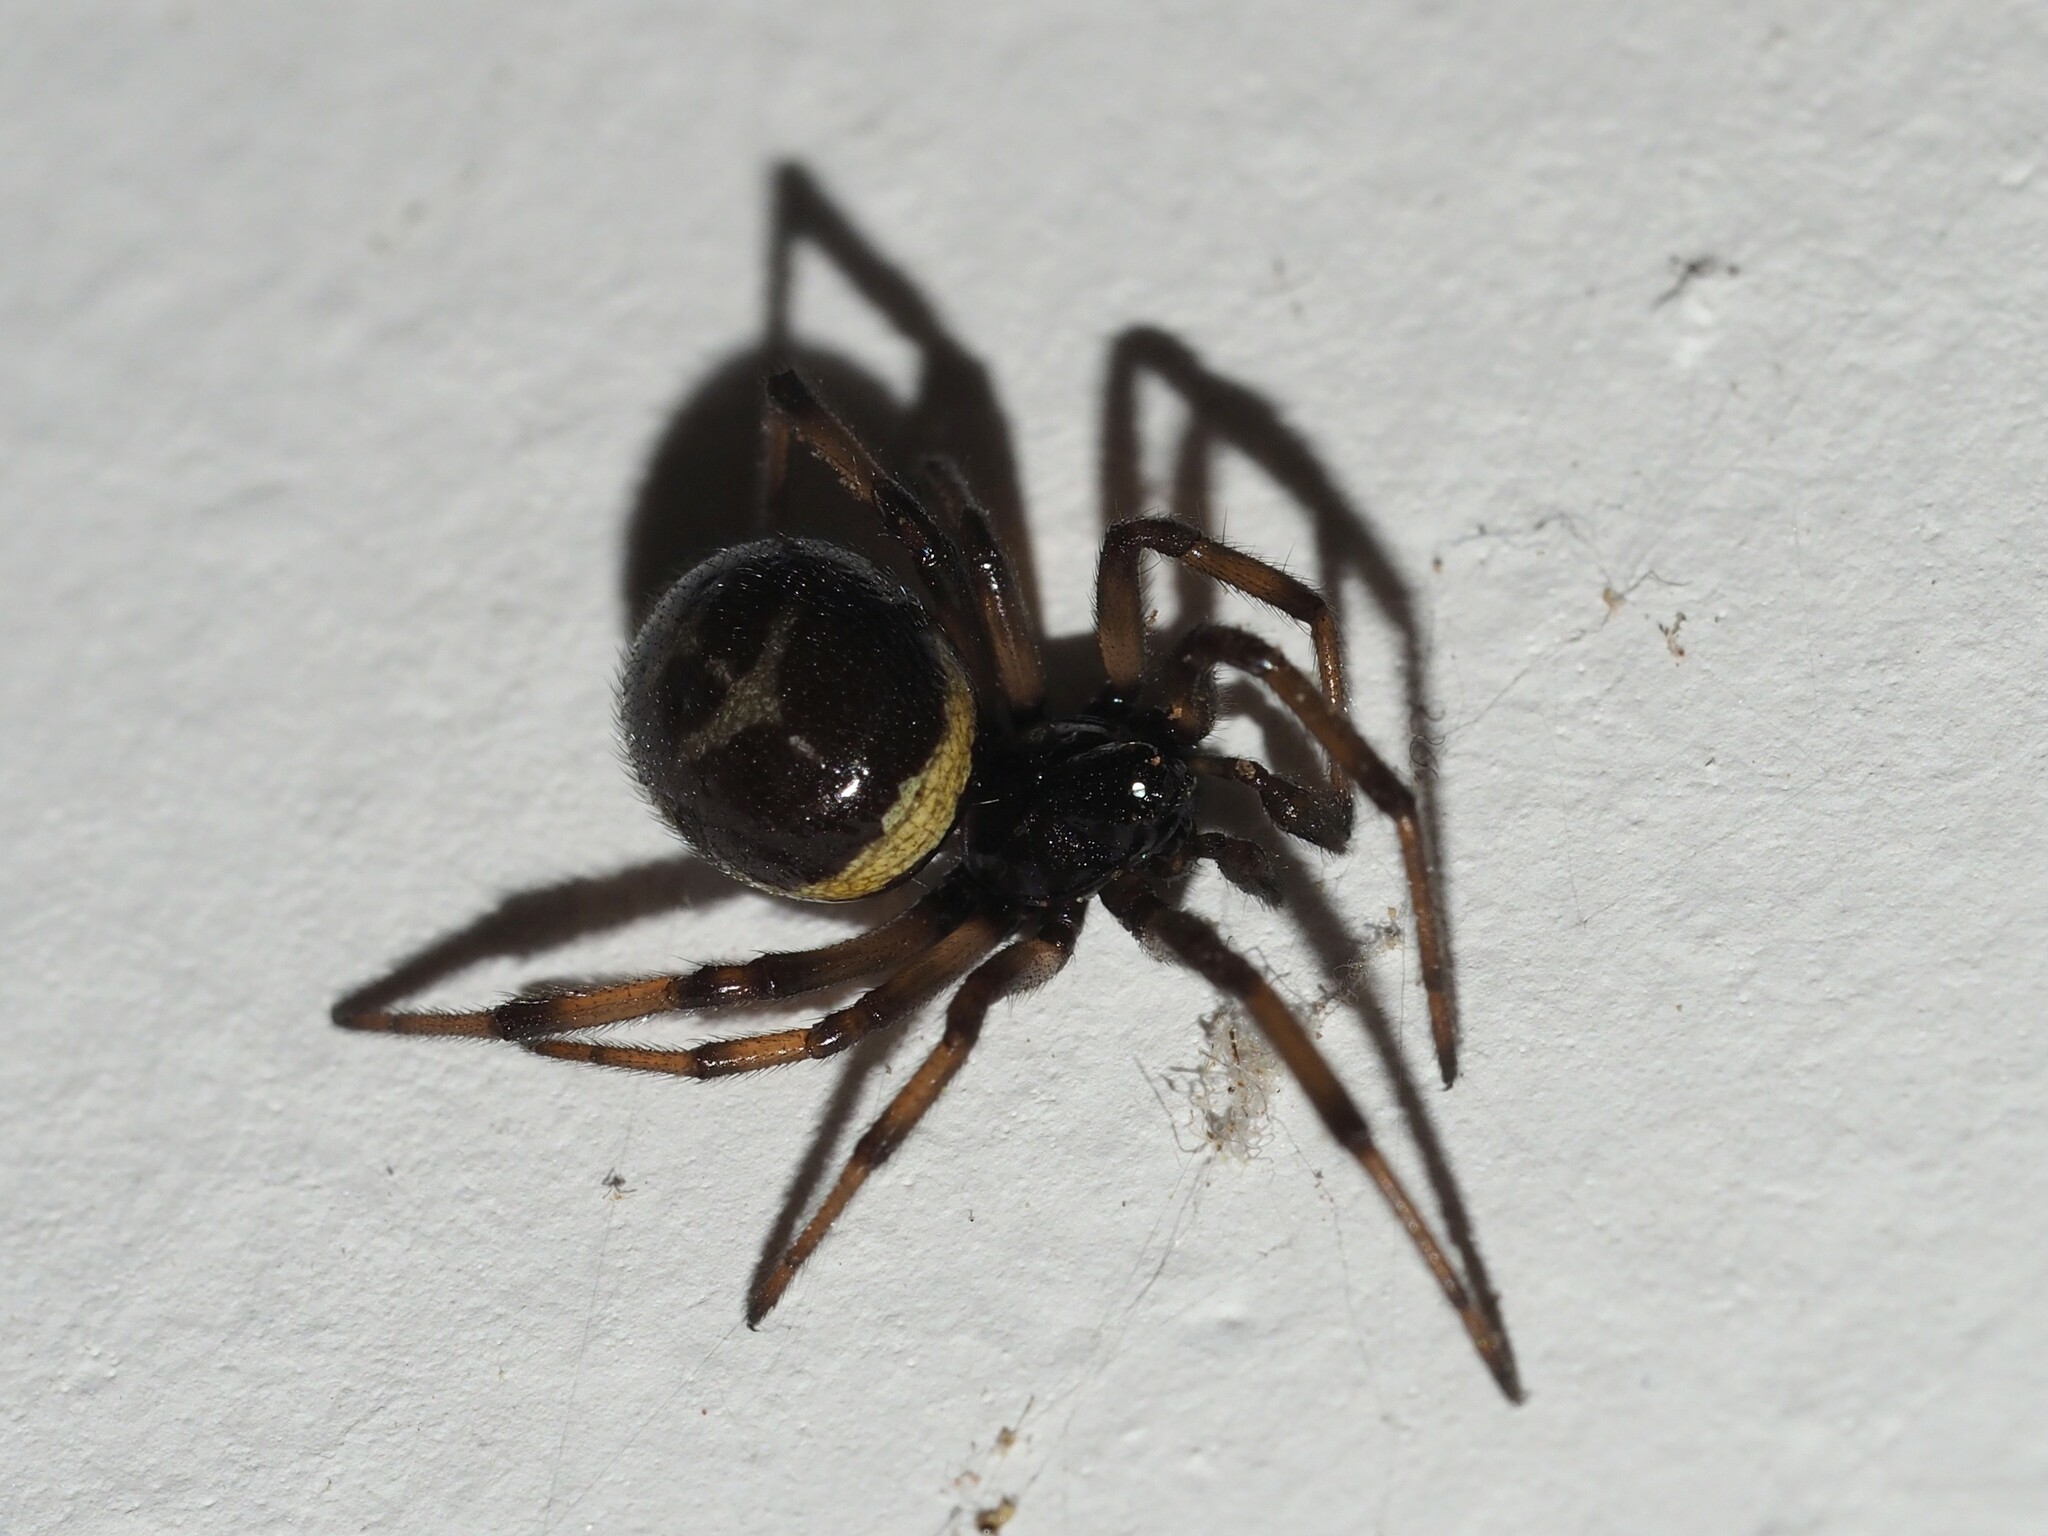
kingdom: Animalia
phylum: Arthropoda
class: Arachnida
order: Araneae
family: Theridiidae
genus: Steatoda
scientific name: Steatoda paykulliana
